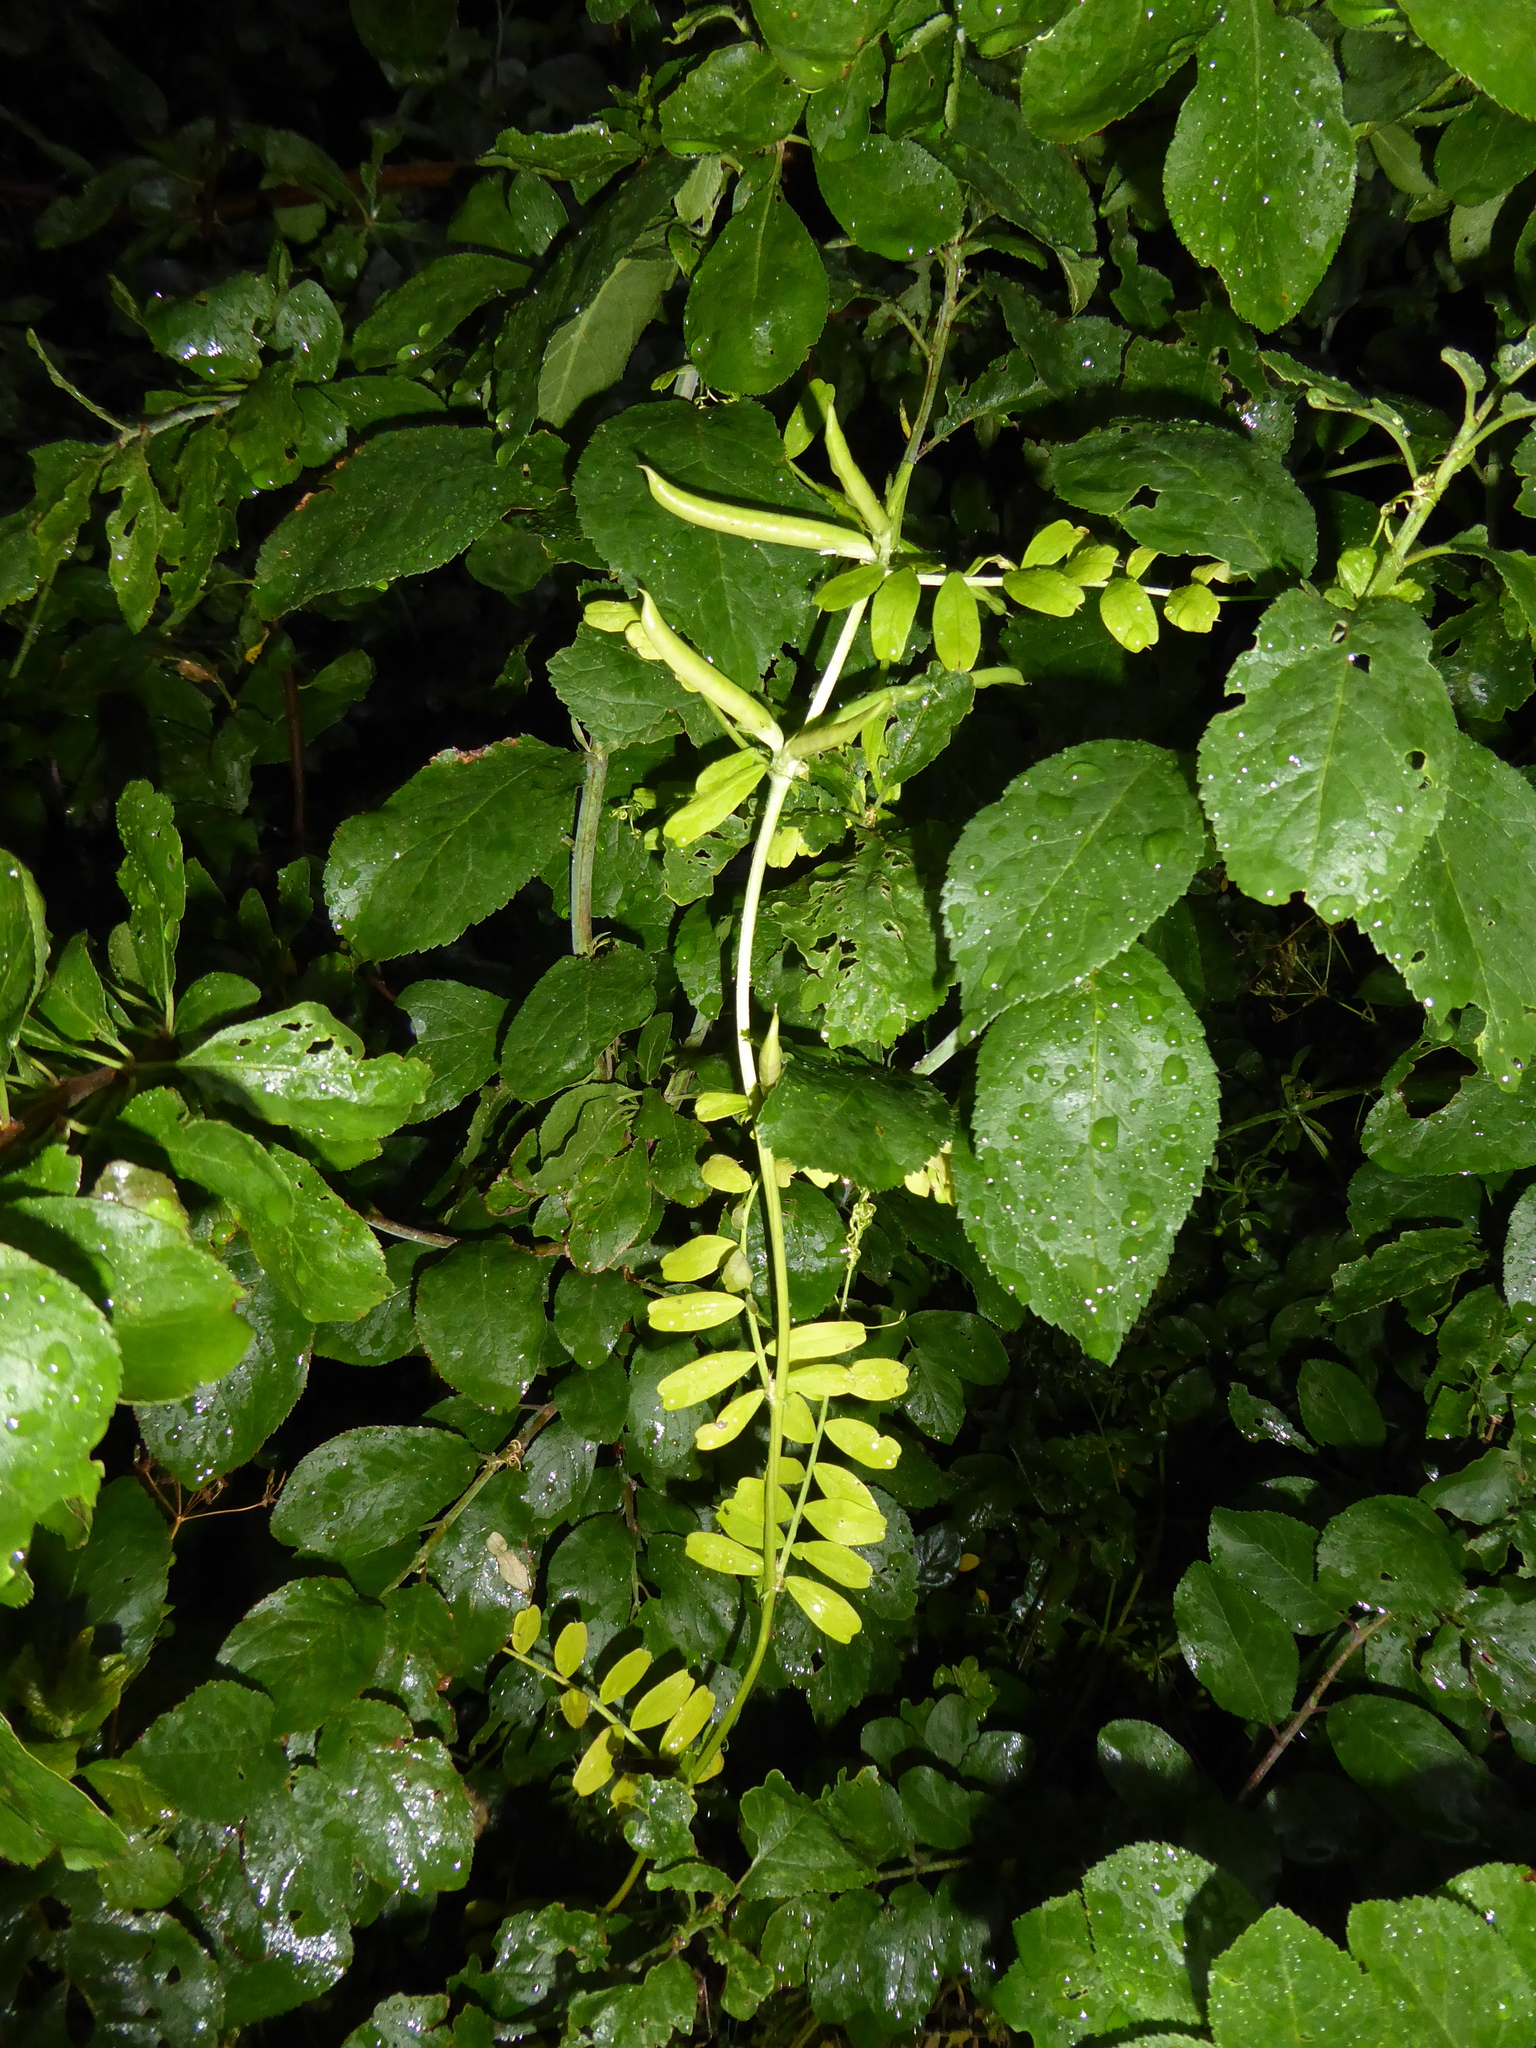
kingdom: Plantae
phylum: Tracheophyta
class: Magnoliopsida
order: Fabales
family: Fabaceae
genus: Vicia
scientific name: Vicia sativa
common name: Garden vetch
